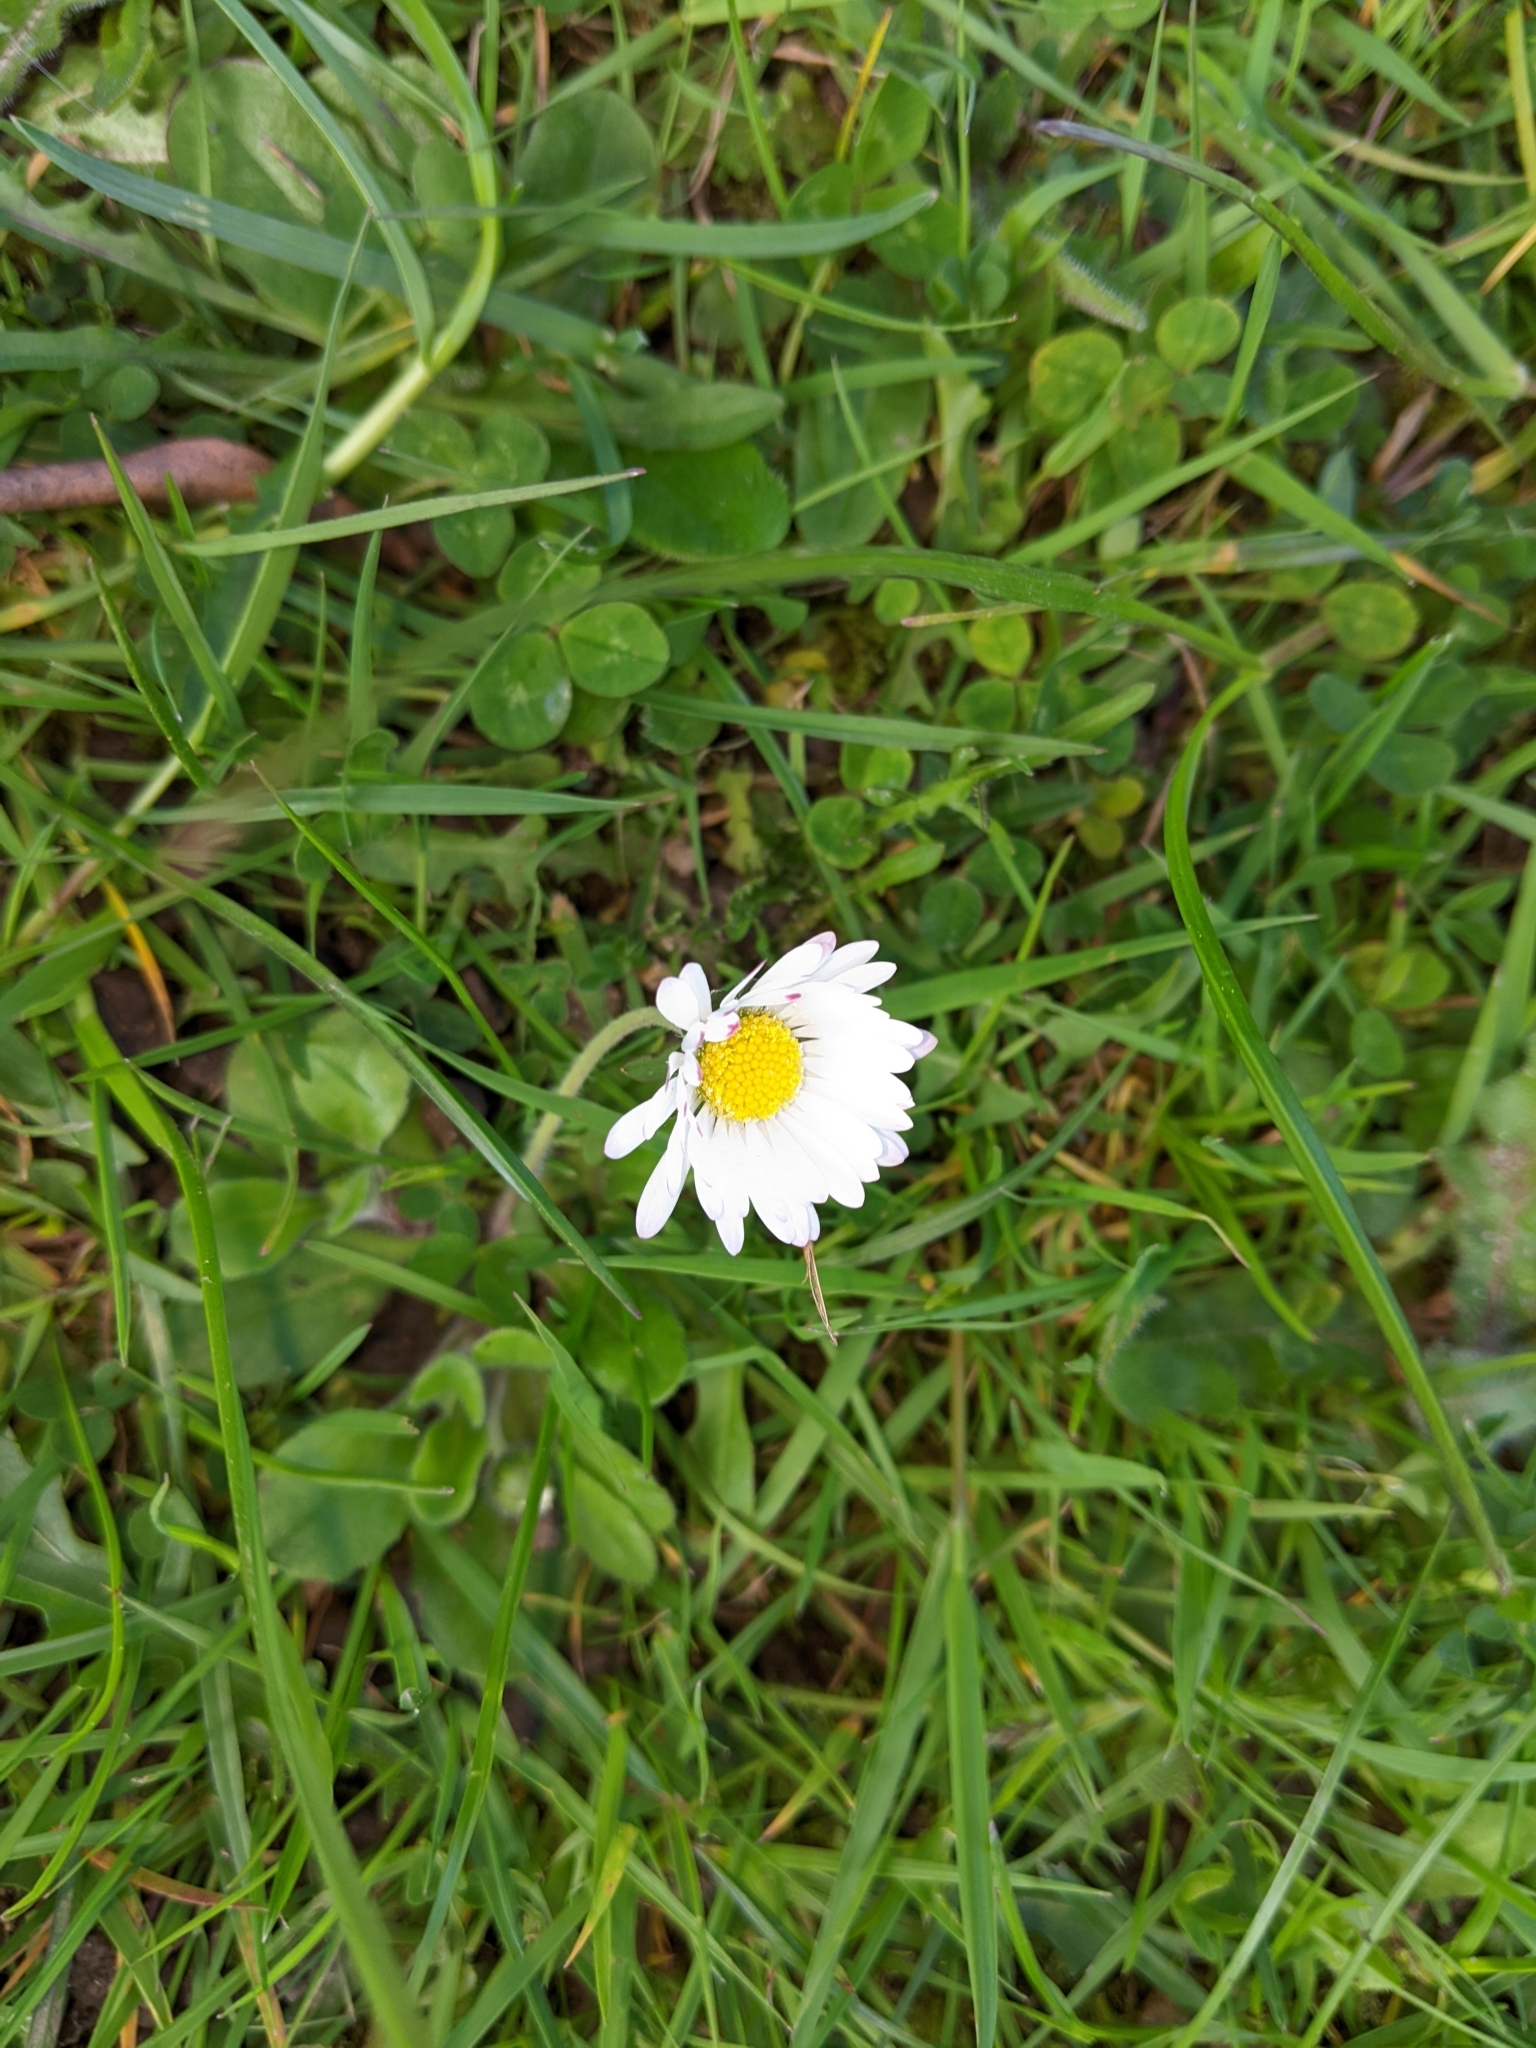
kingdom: Plantae
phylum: Tracheophyta
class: Magnoliopsida
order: Asterales
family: Asteraceae
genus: Bellis
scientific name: Bellis perennis
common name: Lawndaisy
